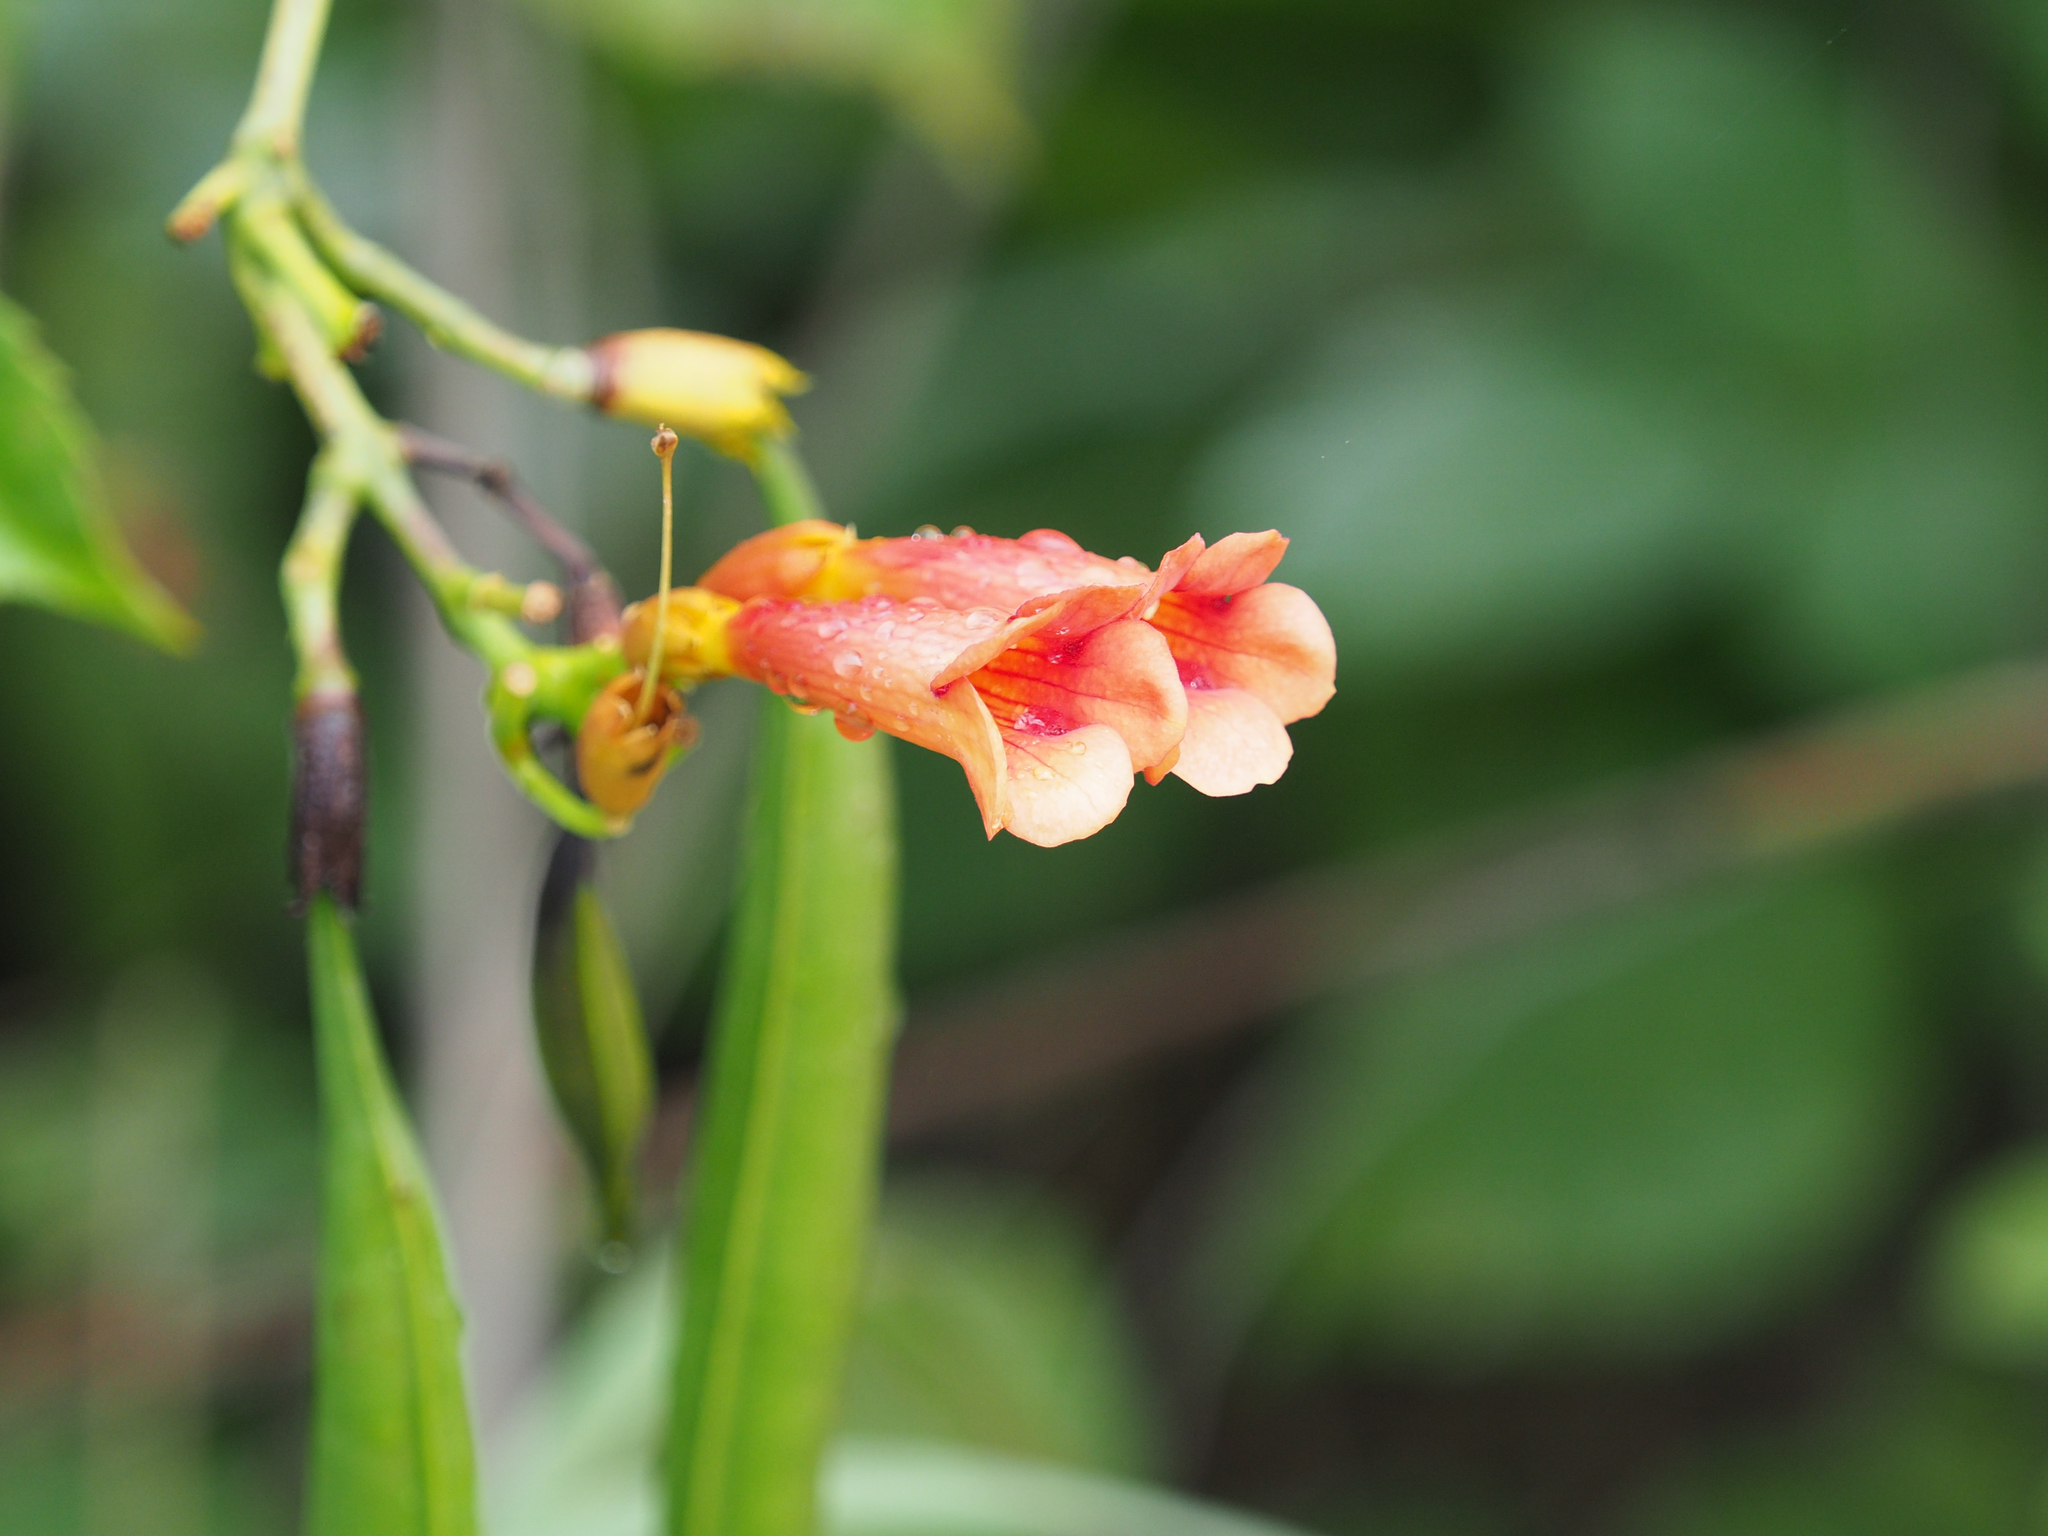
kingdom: Plantae
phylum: Tracheophyta
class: Magnoliopsida
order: Lamiales
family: Bignoniaceae
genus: Campsis
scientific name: Campsis radicans
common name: Trumpet-creeper
